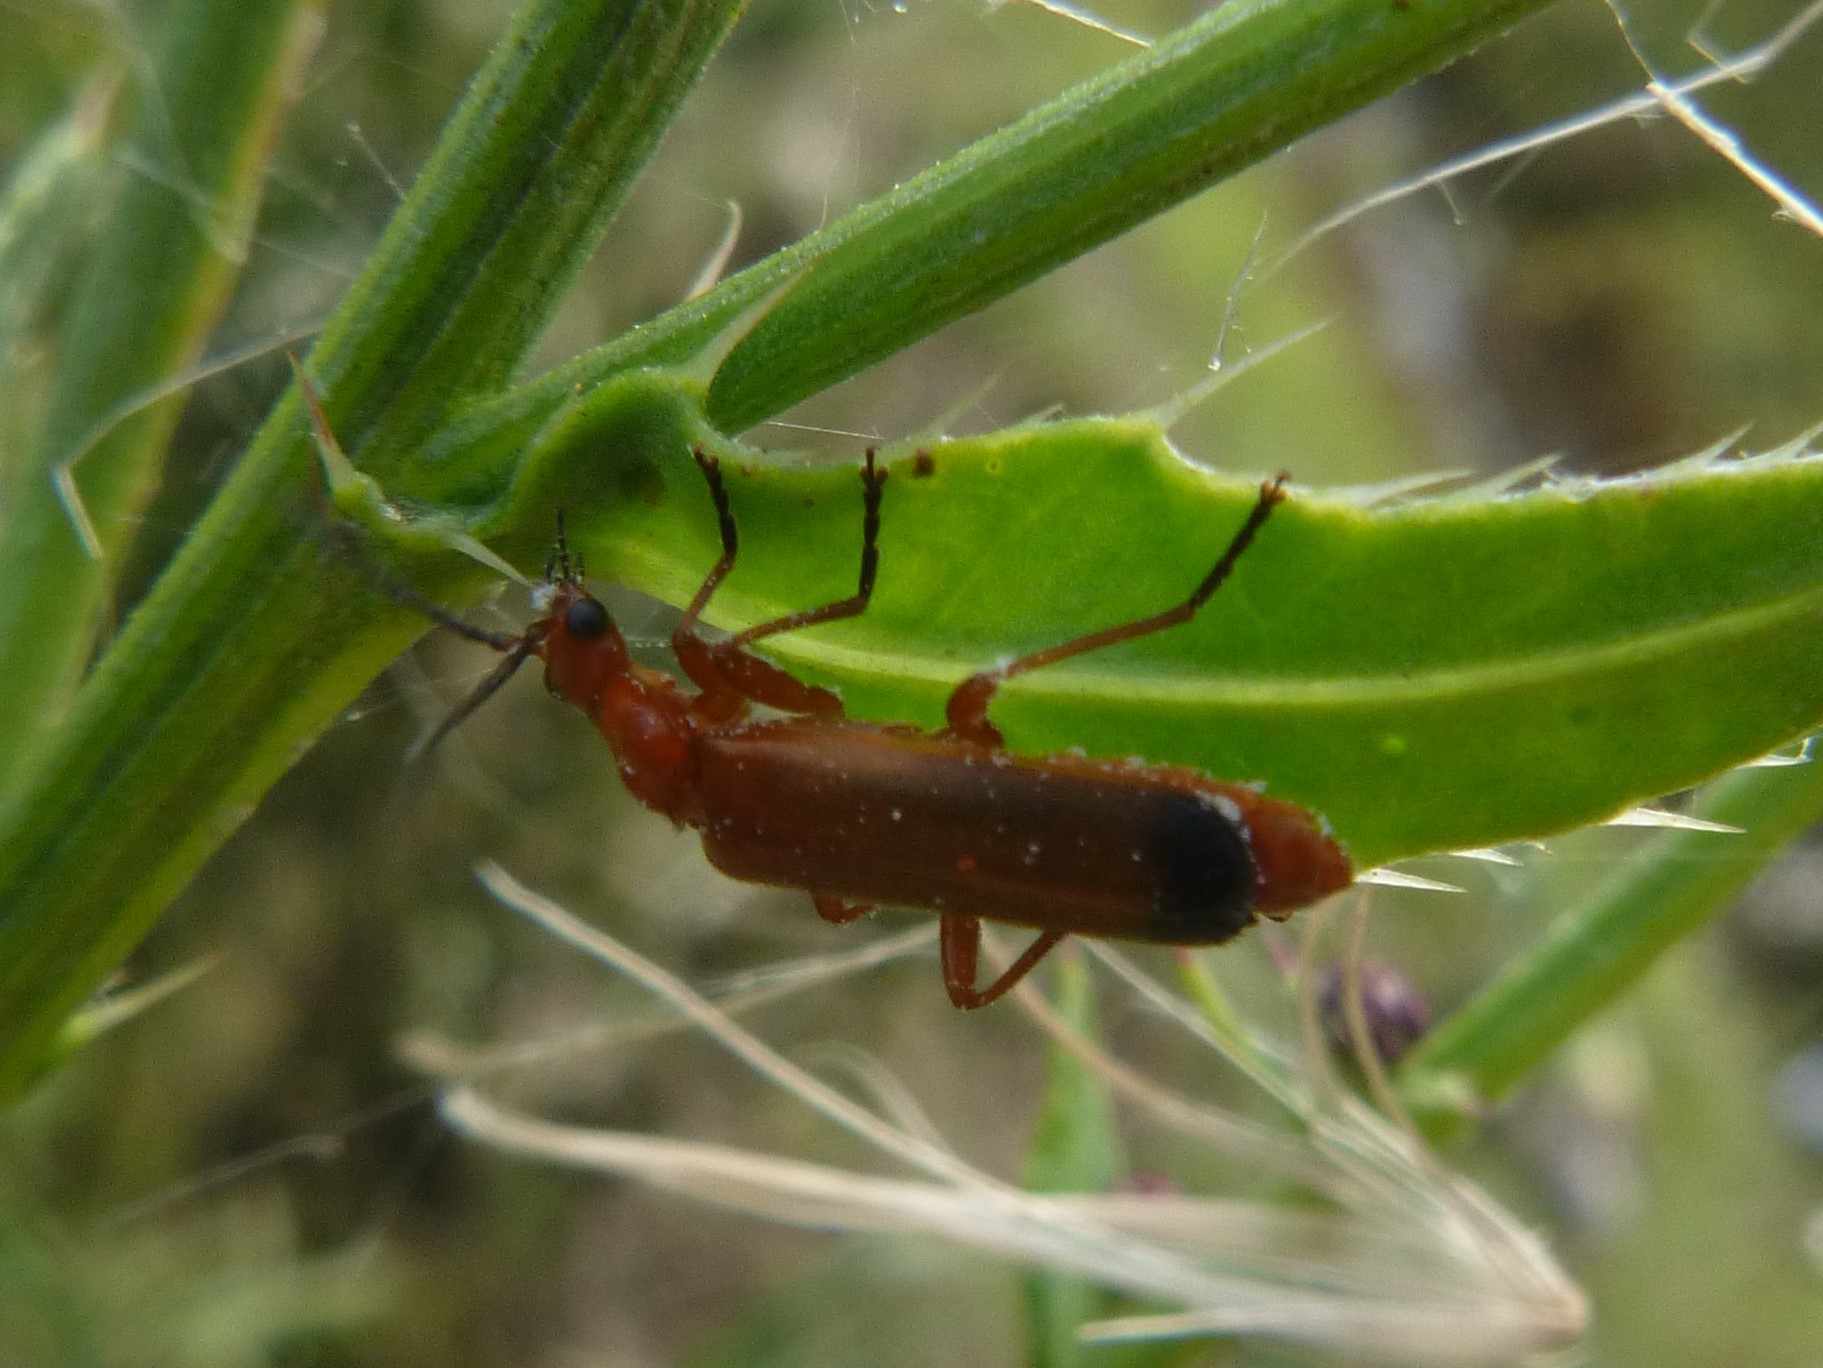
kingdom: Animalia
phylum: Arthropoda
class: Insecta
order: Coleoptera
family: Cantharidae
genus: Rhagonycha
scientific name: Rhagonycha fulva
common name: Common red soldier beetle
